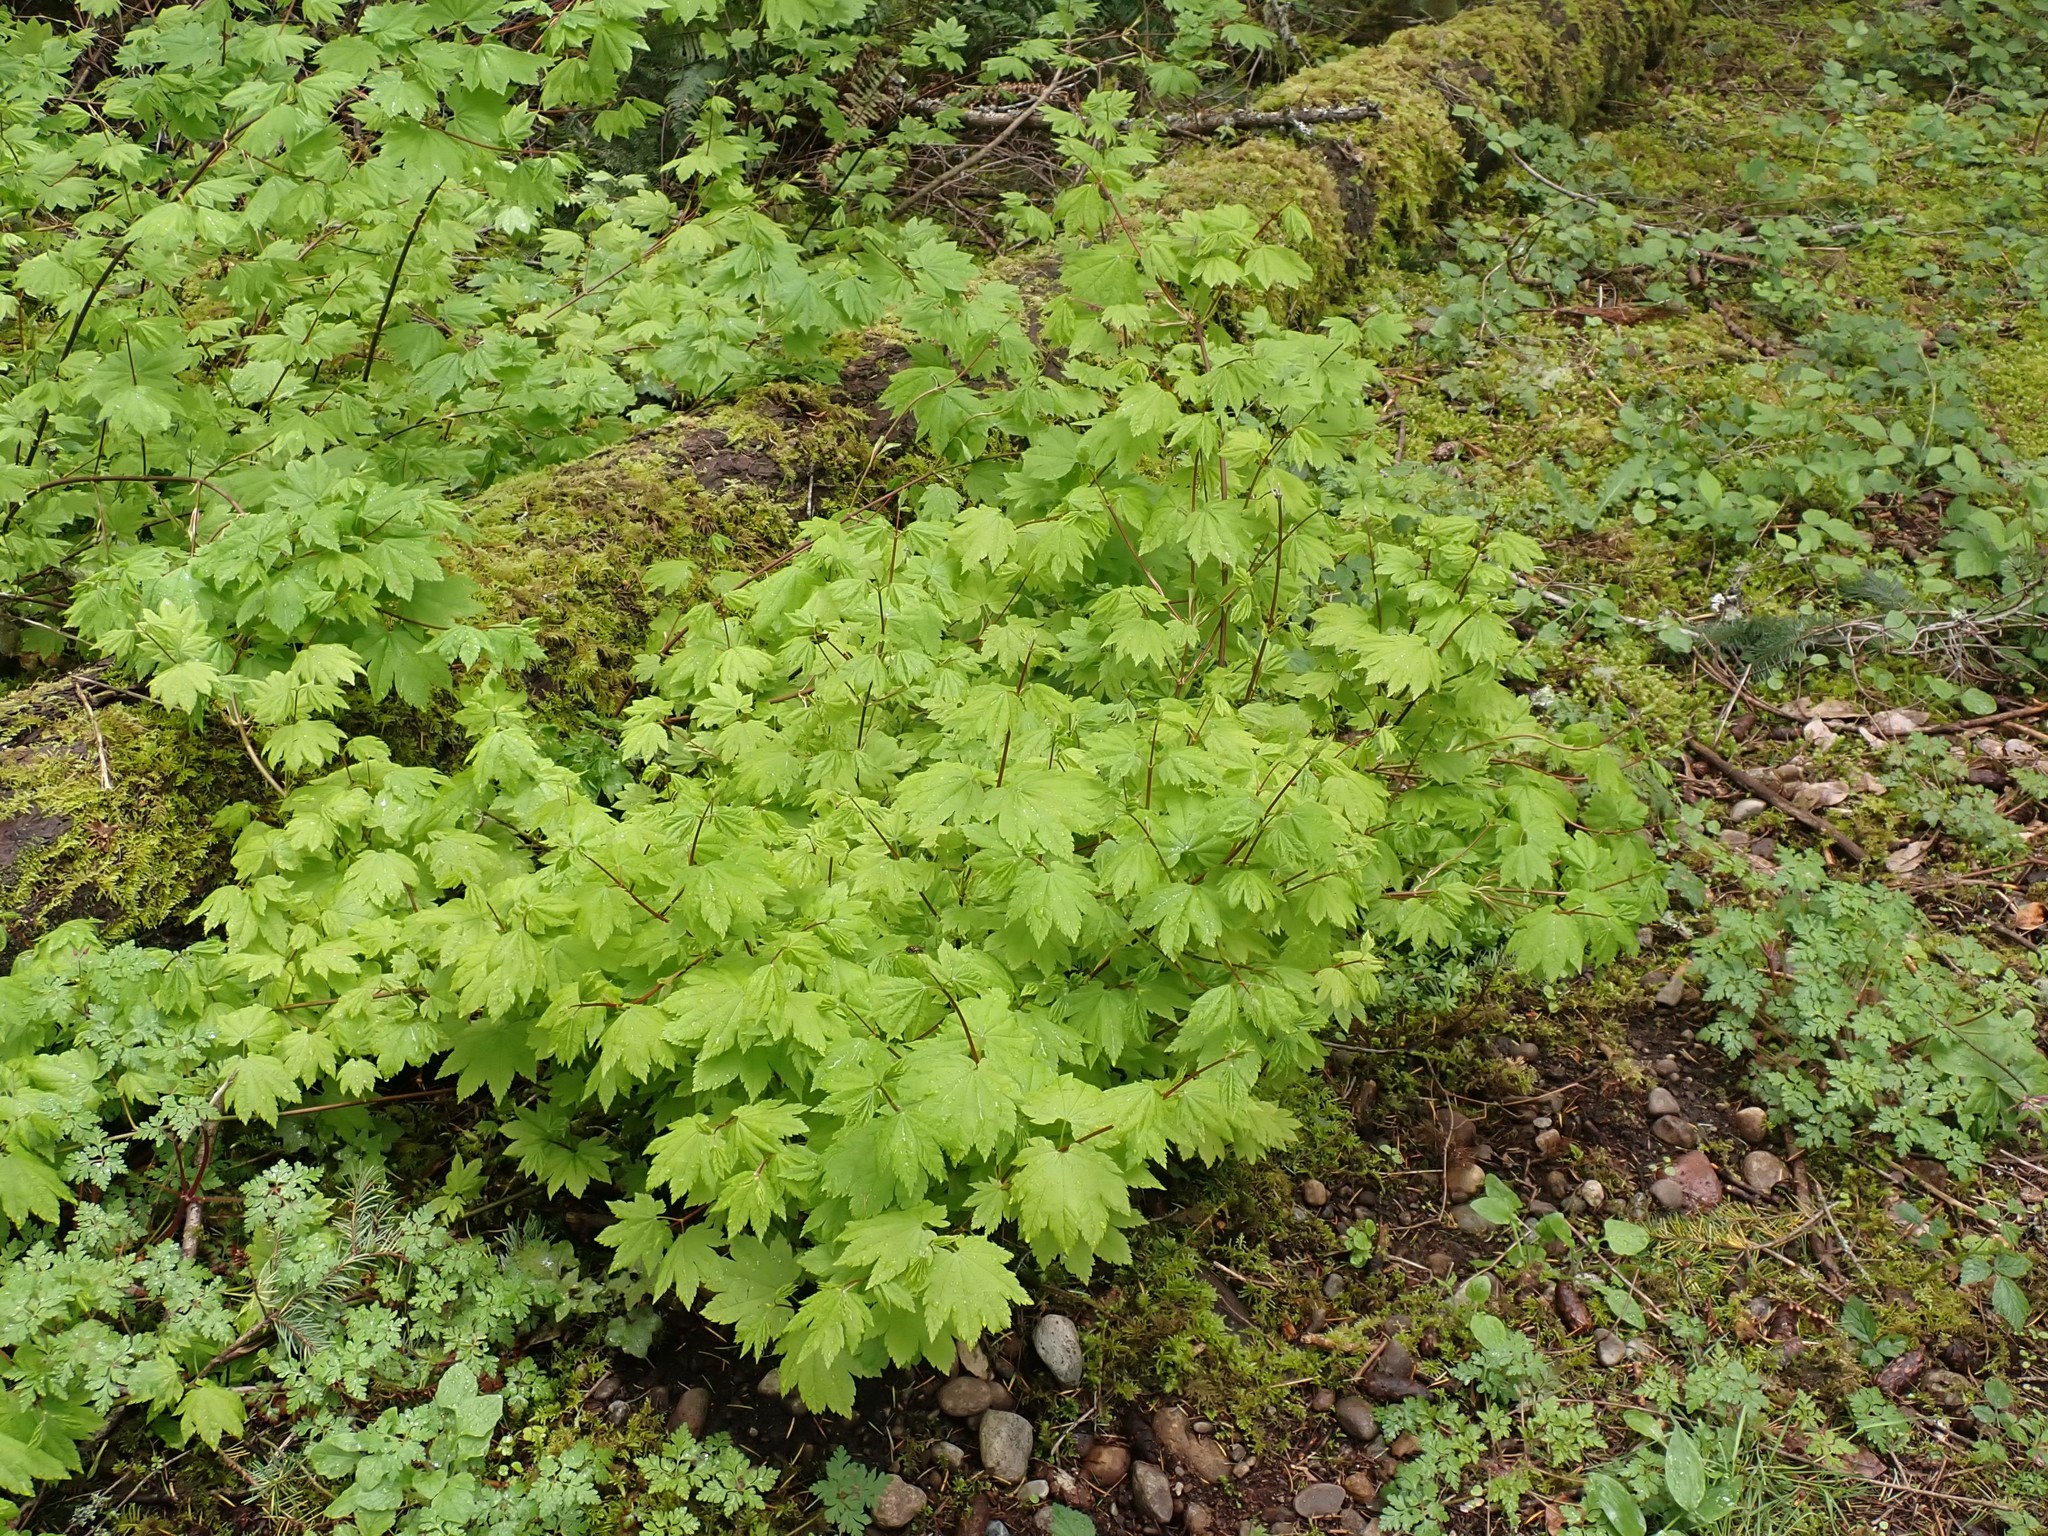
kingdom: Plantae
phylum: Tracheophyta
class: Magnoliopsida
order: Sapindales
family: Sapindaceae
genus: Acer
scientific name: Acer circinatum
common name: Vine maple
